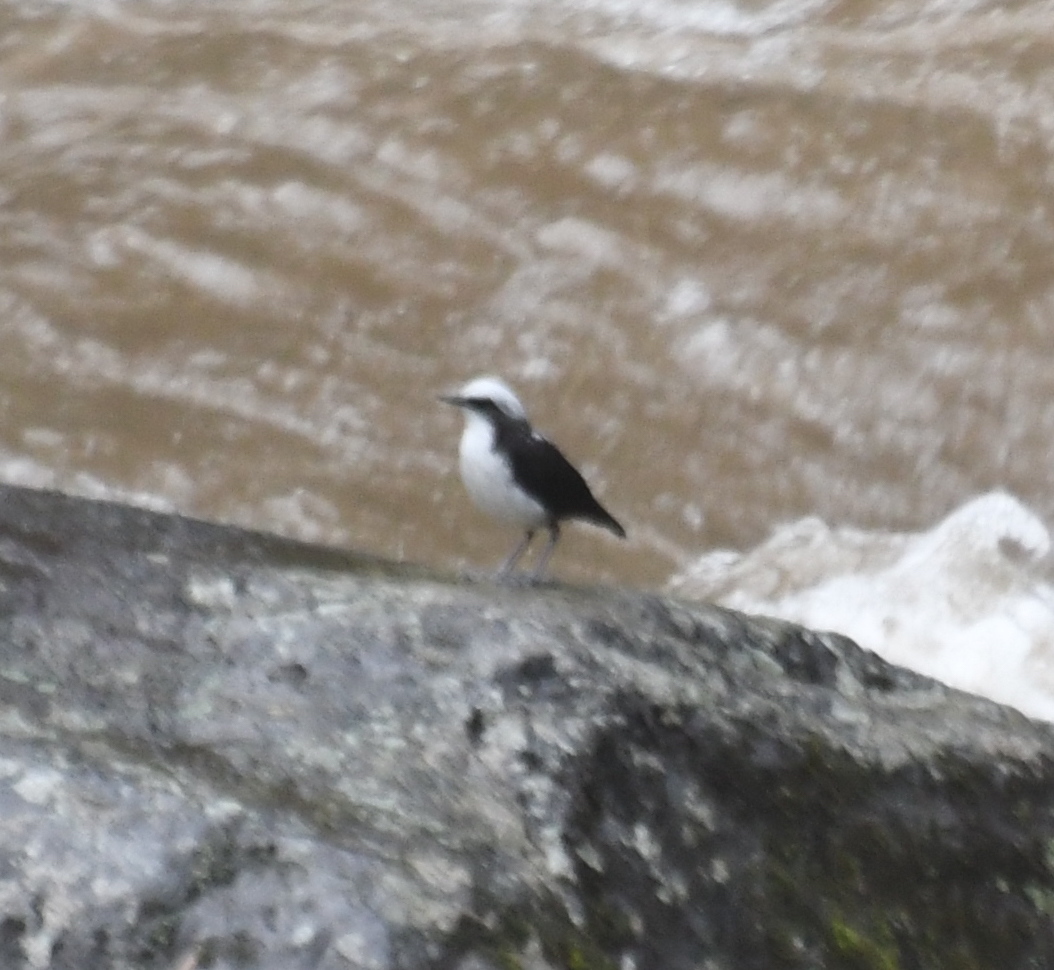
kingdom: Animalia
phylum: Chordata
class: Aves
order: Passeriformes
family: Cinclidae
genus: Cinclus
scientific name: Cinclus leucocephalus
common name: White-capped dipper
